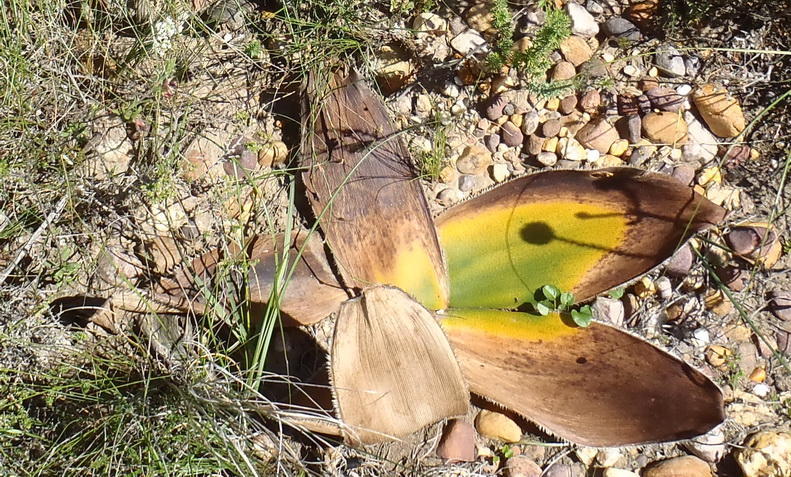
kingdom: Plantae
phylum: Tracheophyta
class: Liliopsida
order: Asparagales
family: Amaryllidaceae
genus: Crossyne
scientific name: Crossyne guttata
